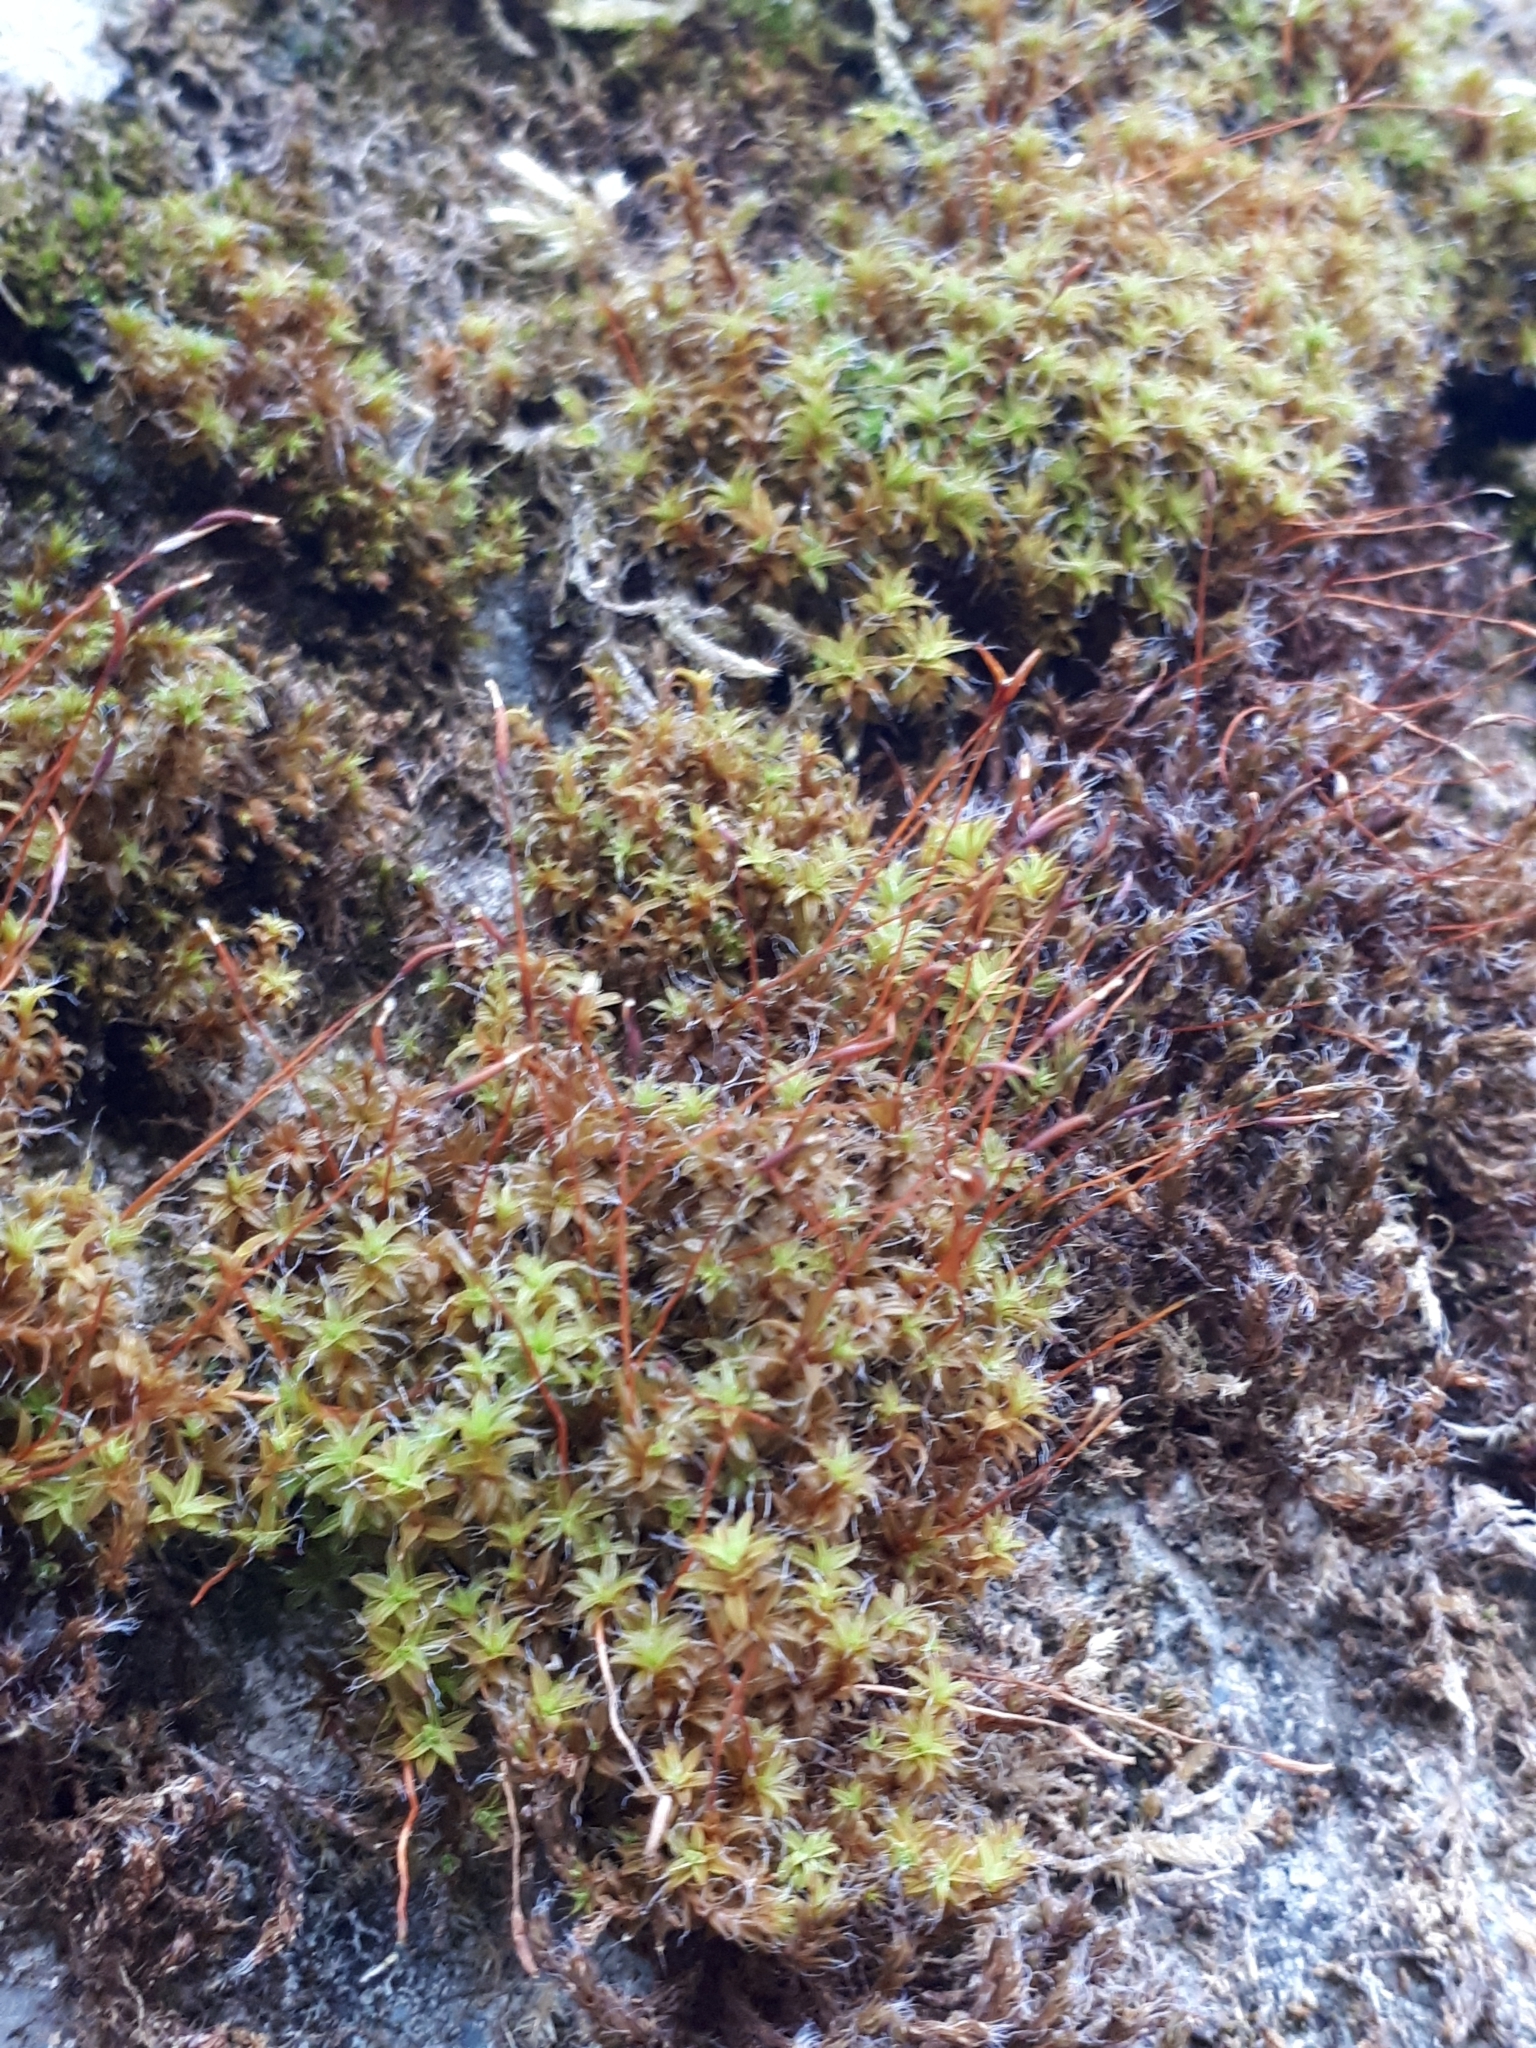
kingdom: Plantae
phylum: Bryophyta
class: Bryopsida
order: Pottiales
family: Pottiaceae
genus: Syntrichia
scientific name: Syntrichia ruralis
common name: Sidewalk screw moss
